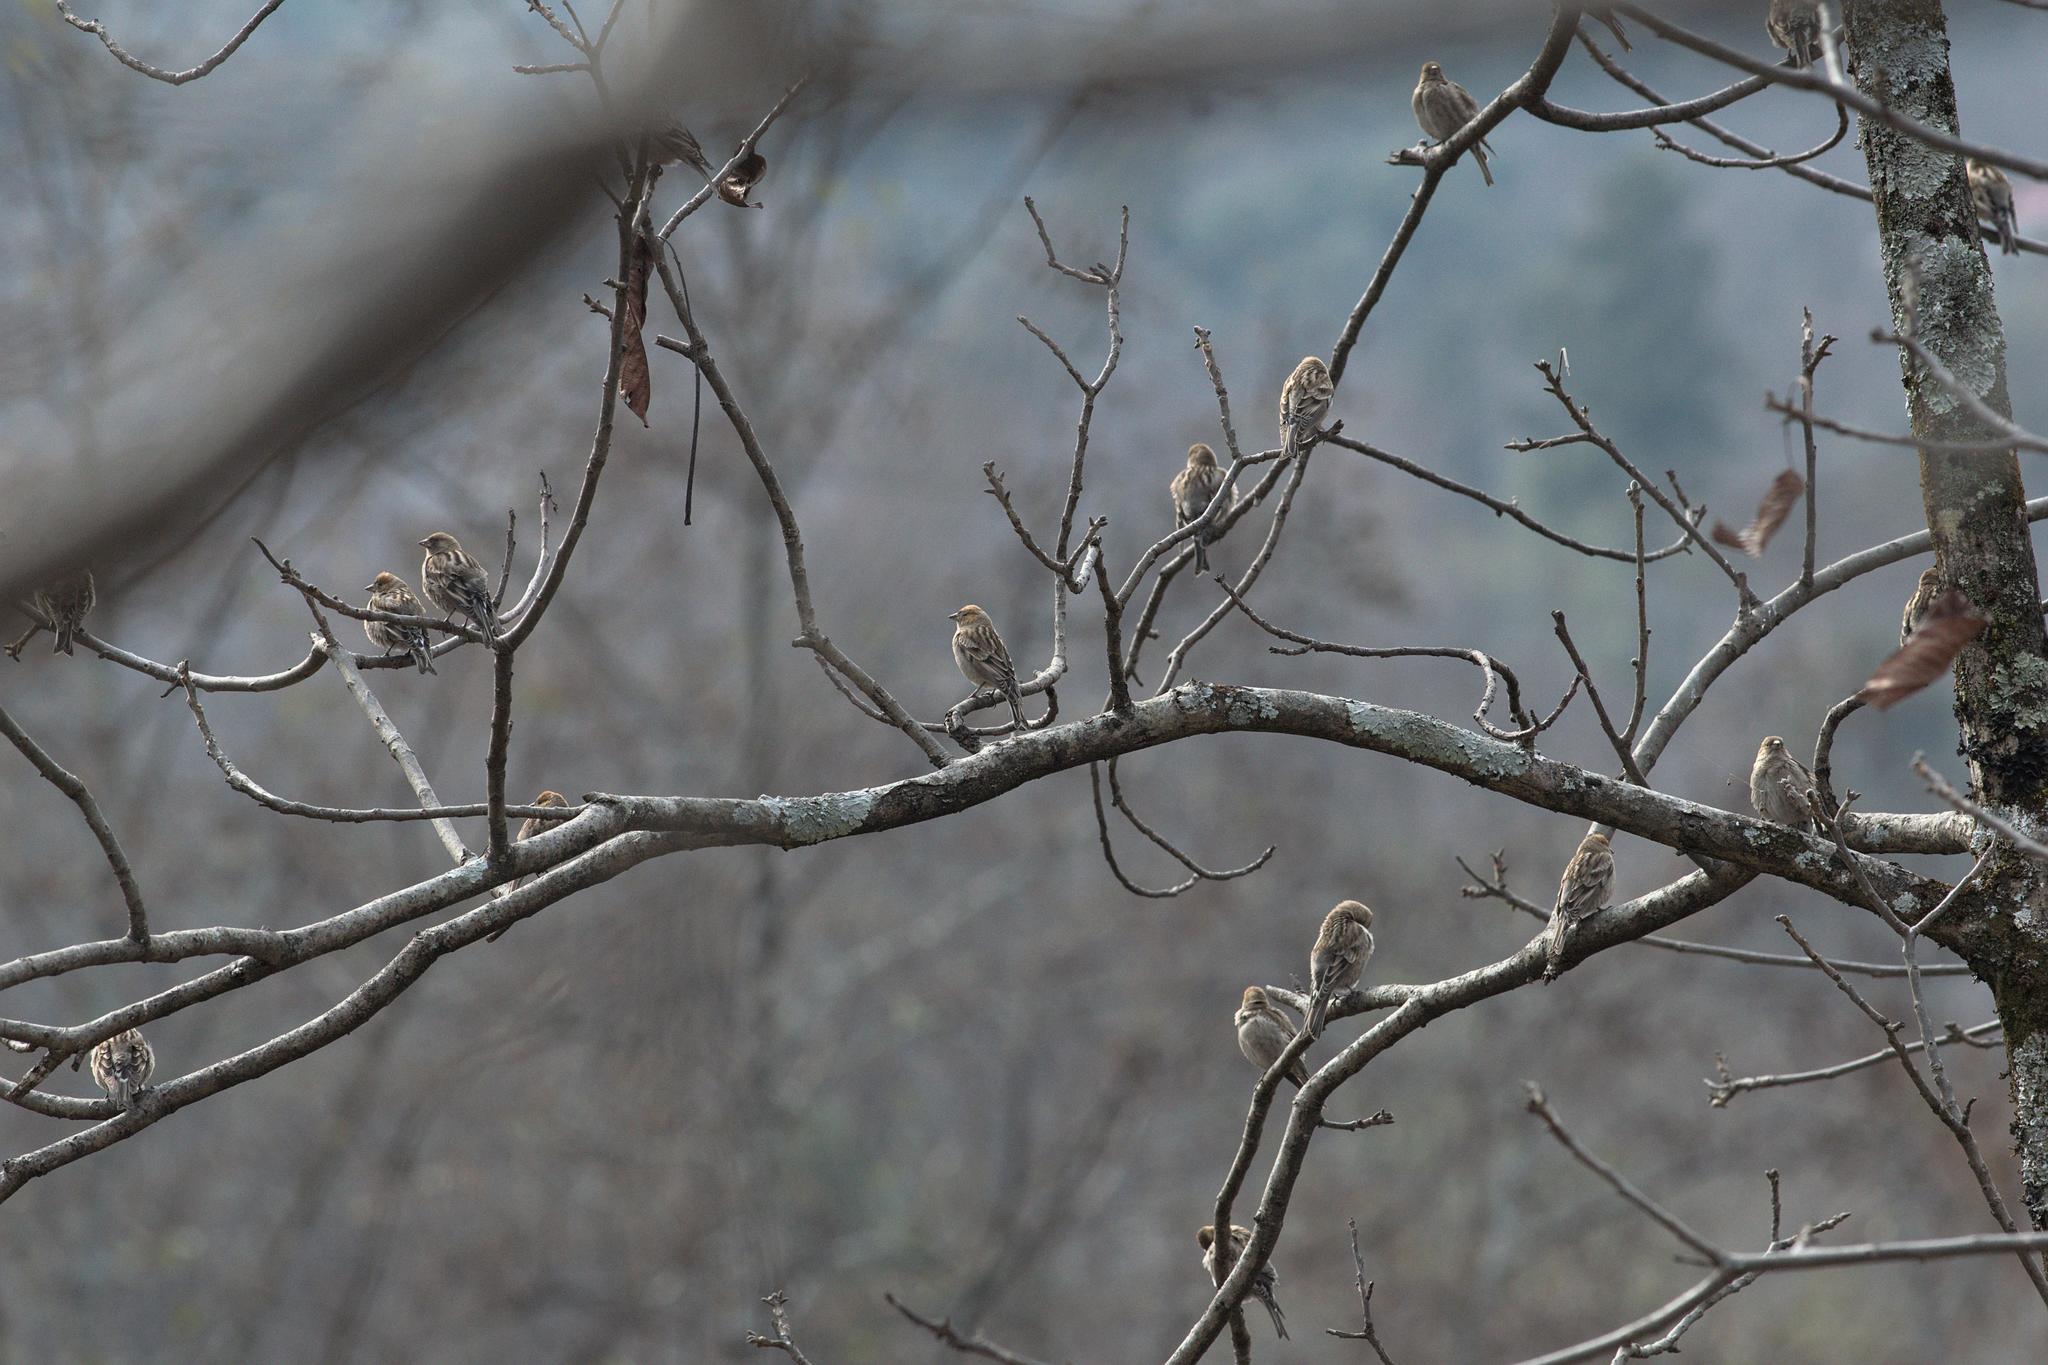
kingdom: Animalia
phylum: Chordata
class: Aves
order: Passeriformes
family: Fringillidae
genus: Leucosticte
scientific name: Leucosticte nemoricola
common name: Plain mountain finch
